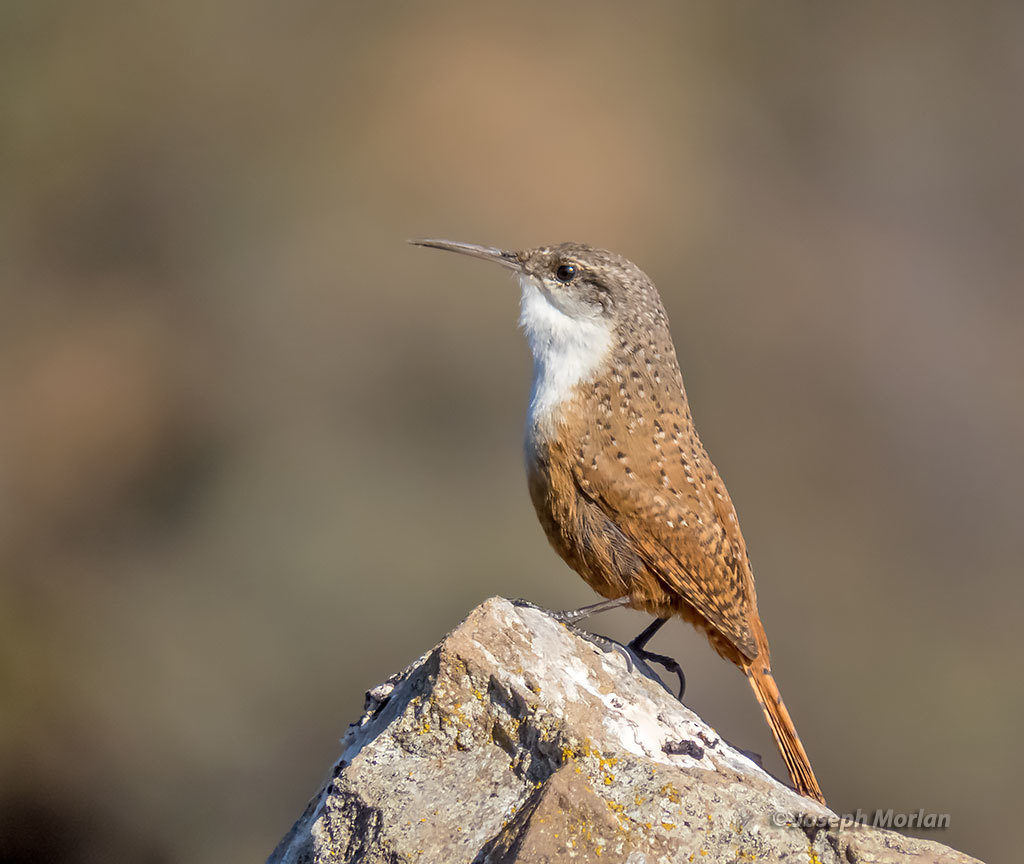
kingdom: Animalia
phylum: Chordata
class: Aves
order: Passeriformes
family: Troglodytidae
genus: Catherpes
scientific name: Catherpes mexicanus
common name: Canyon wren
